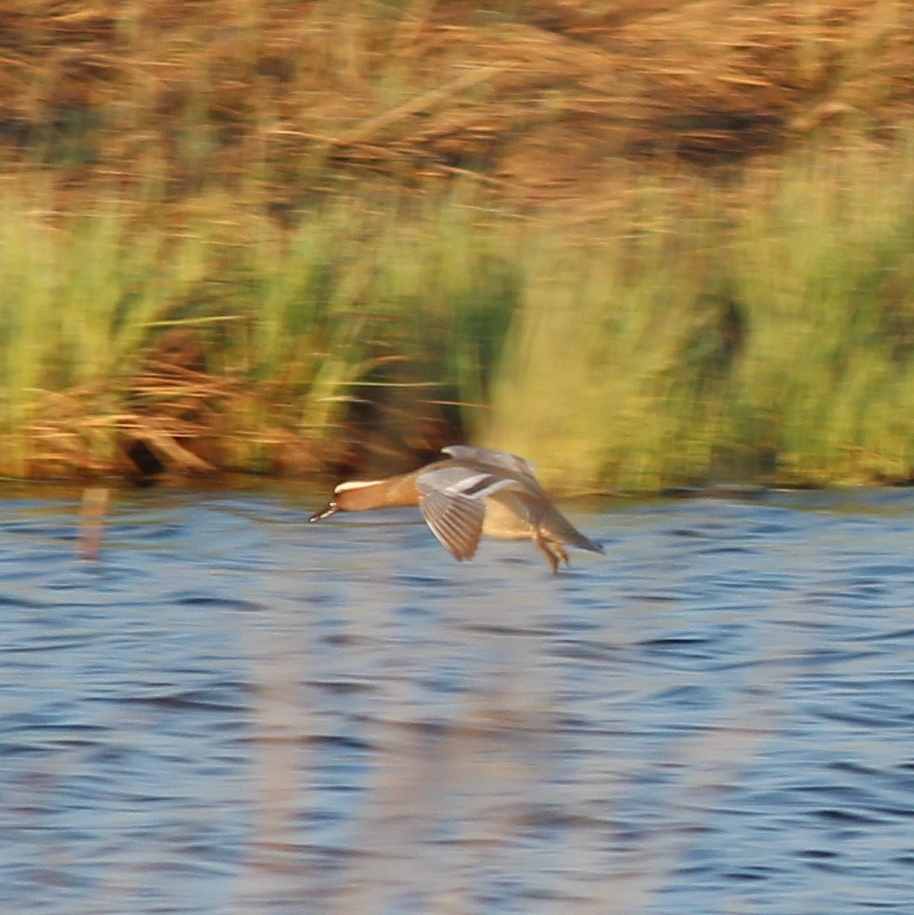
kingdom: Animalia
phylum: Chordata
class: Aves
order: Anseriformes
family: Anatidae
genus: Spatula
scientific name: Spatula querquedula
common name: Garganey
